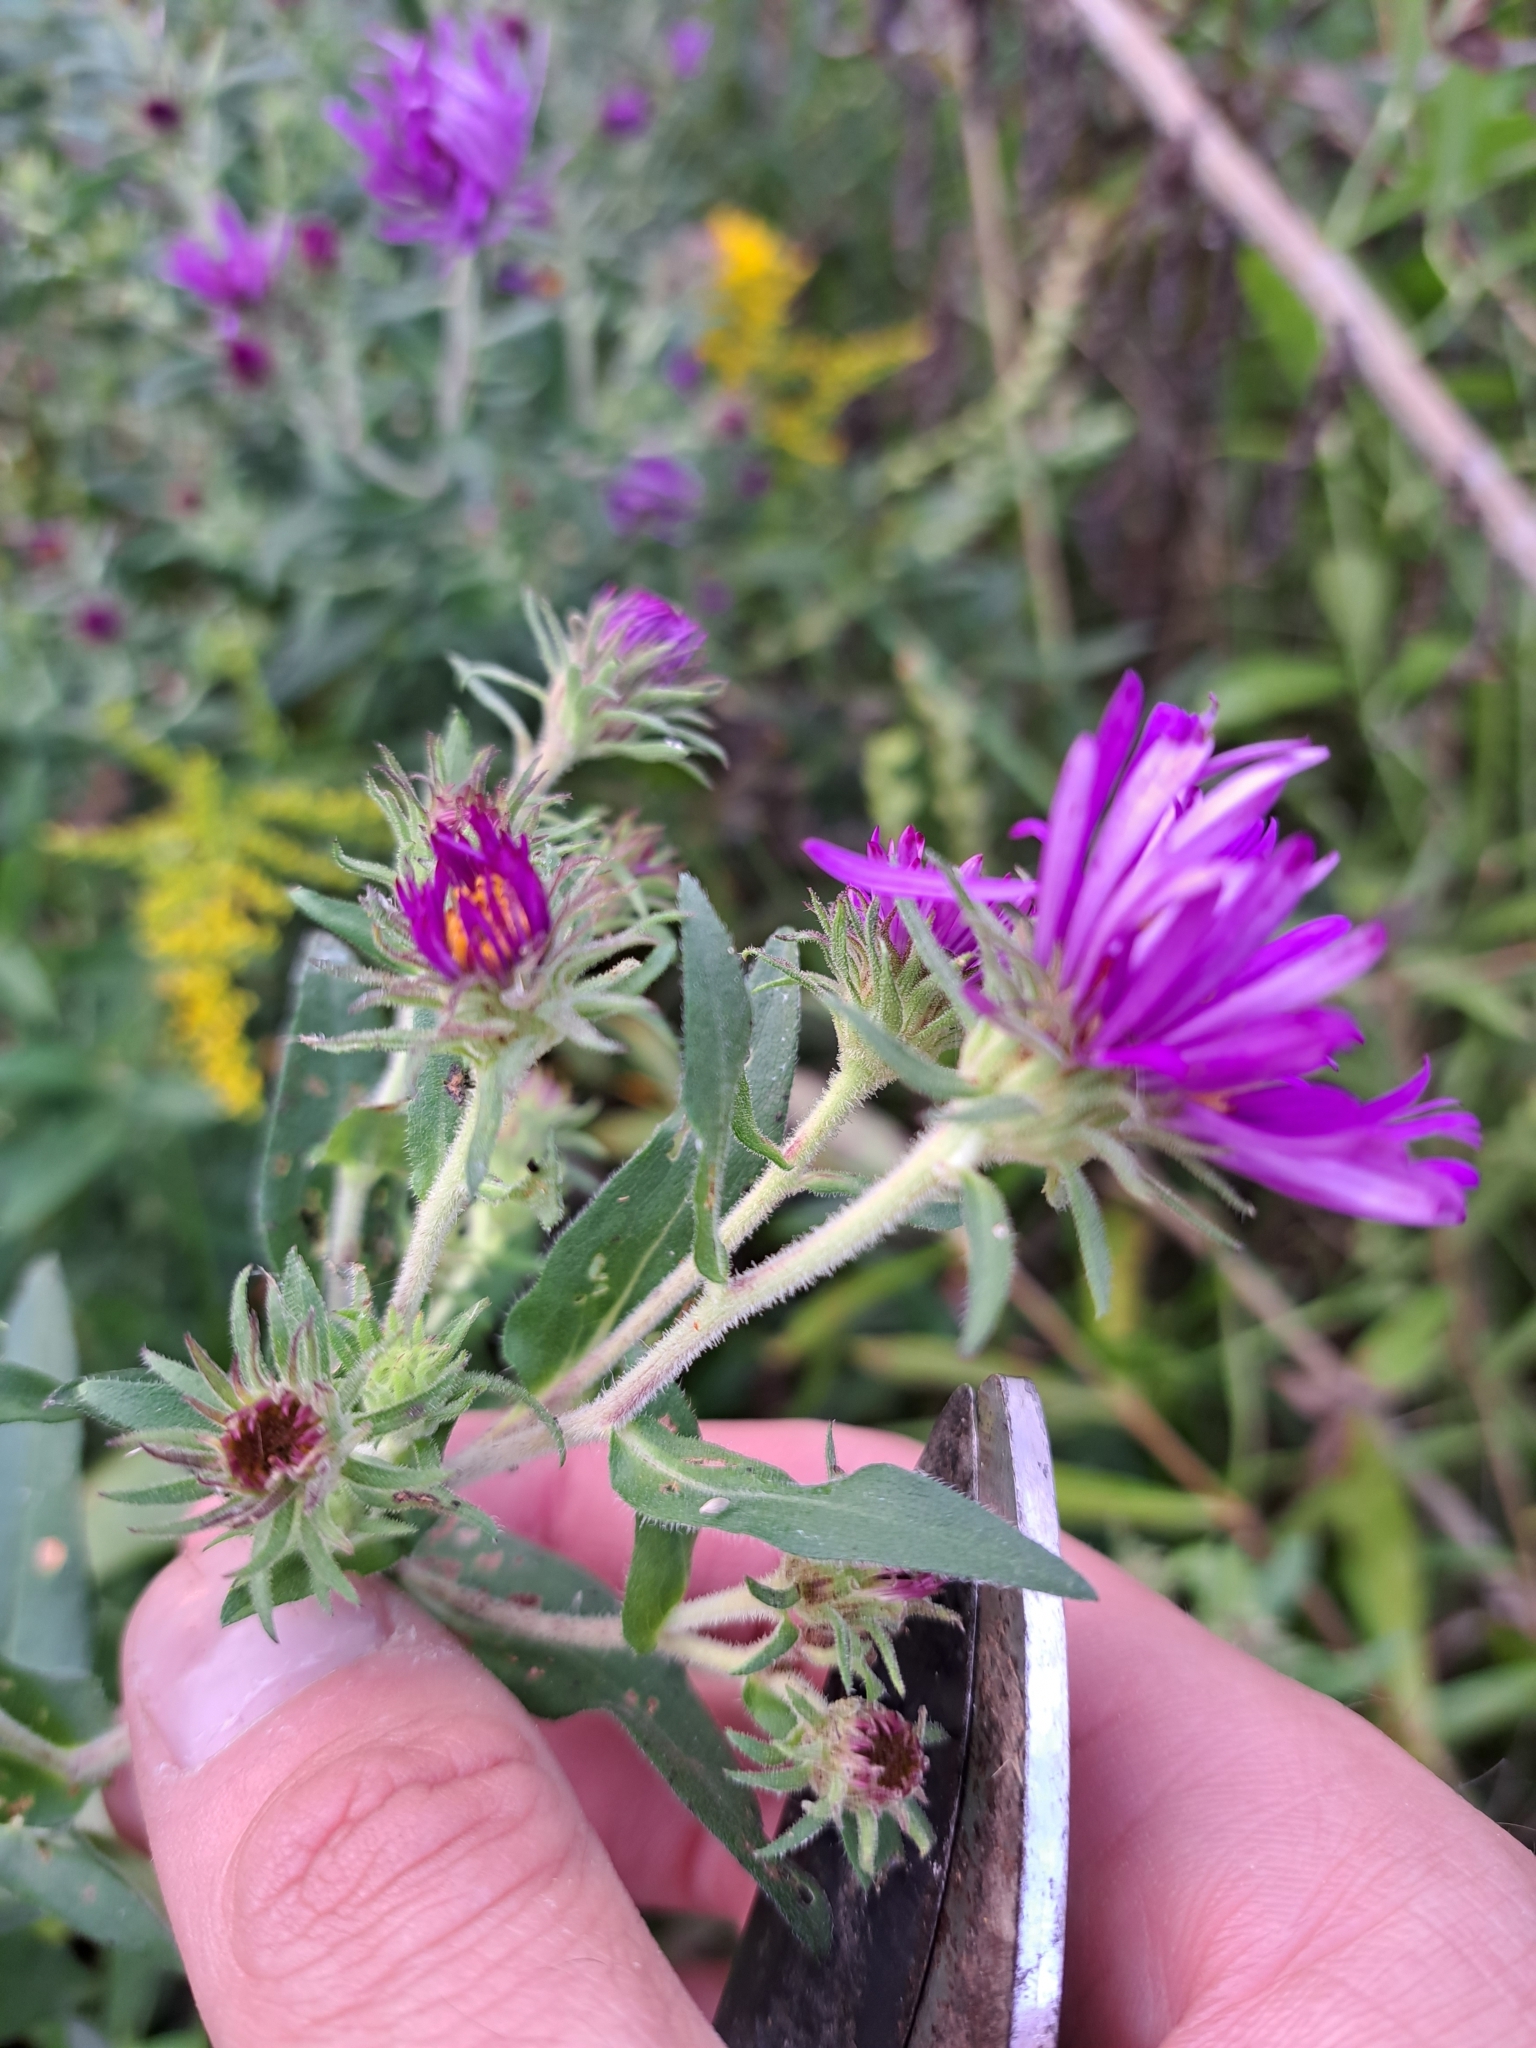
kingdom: Plantae
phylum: Tracheophyta
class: Magnoliopsida
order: Asterales
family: Asteraceae
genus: Symphyotrichum
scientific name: Symphyotrichum novae-angliae
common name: Michaelmas daisy
